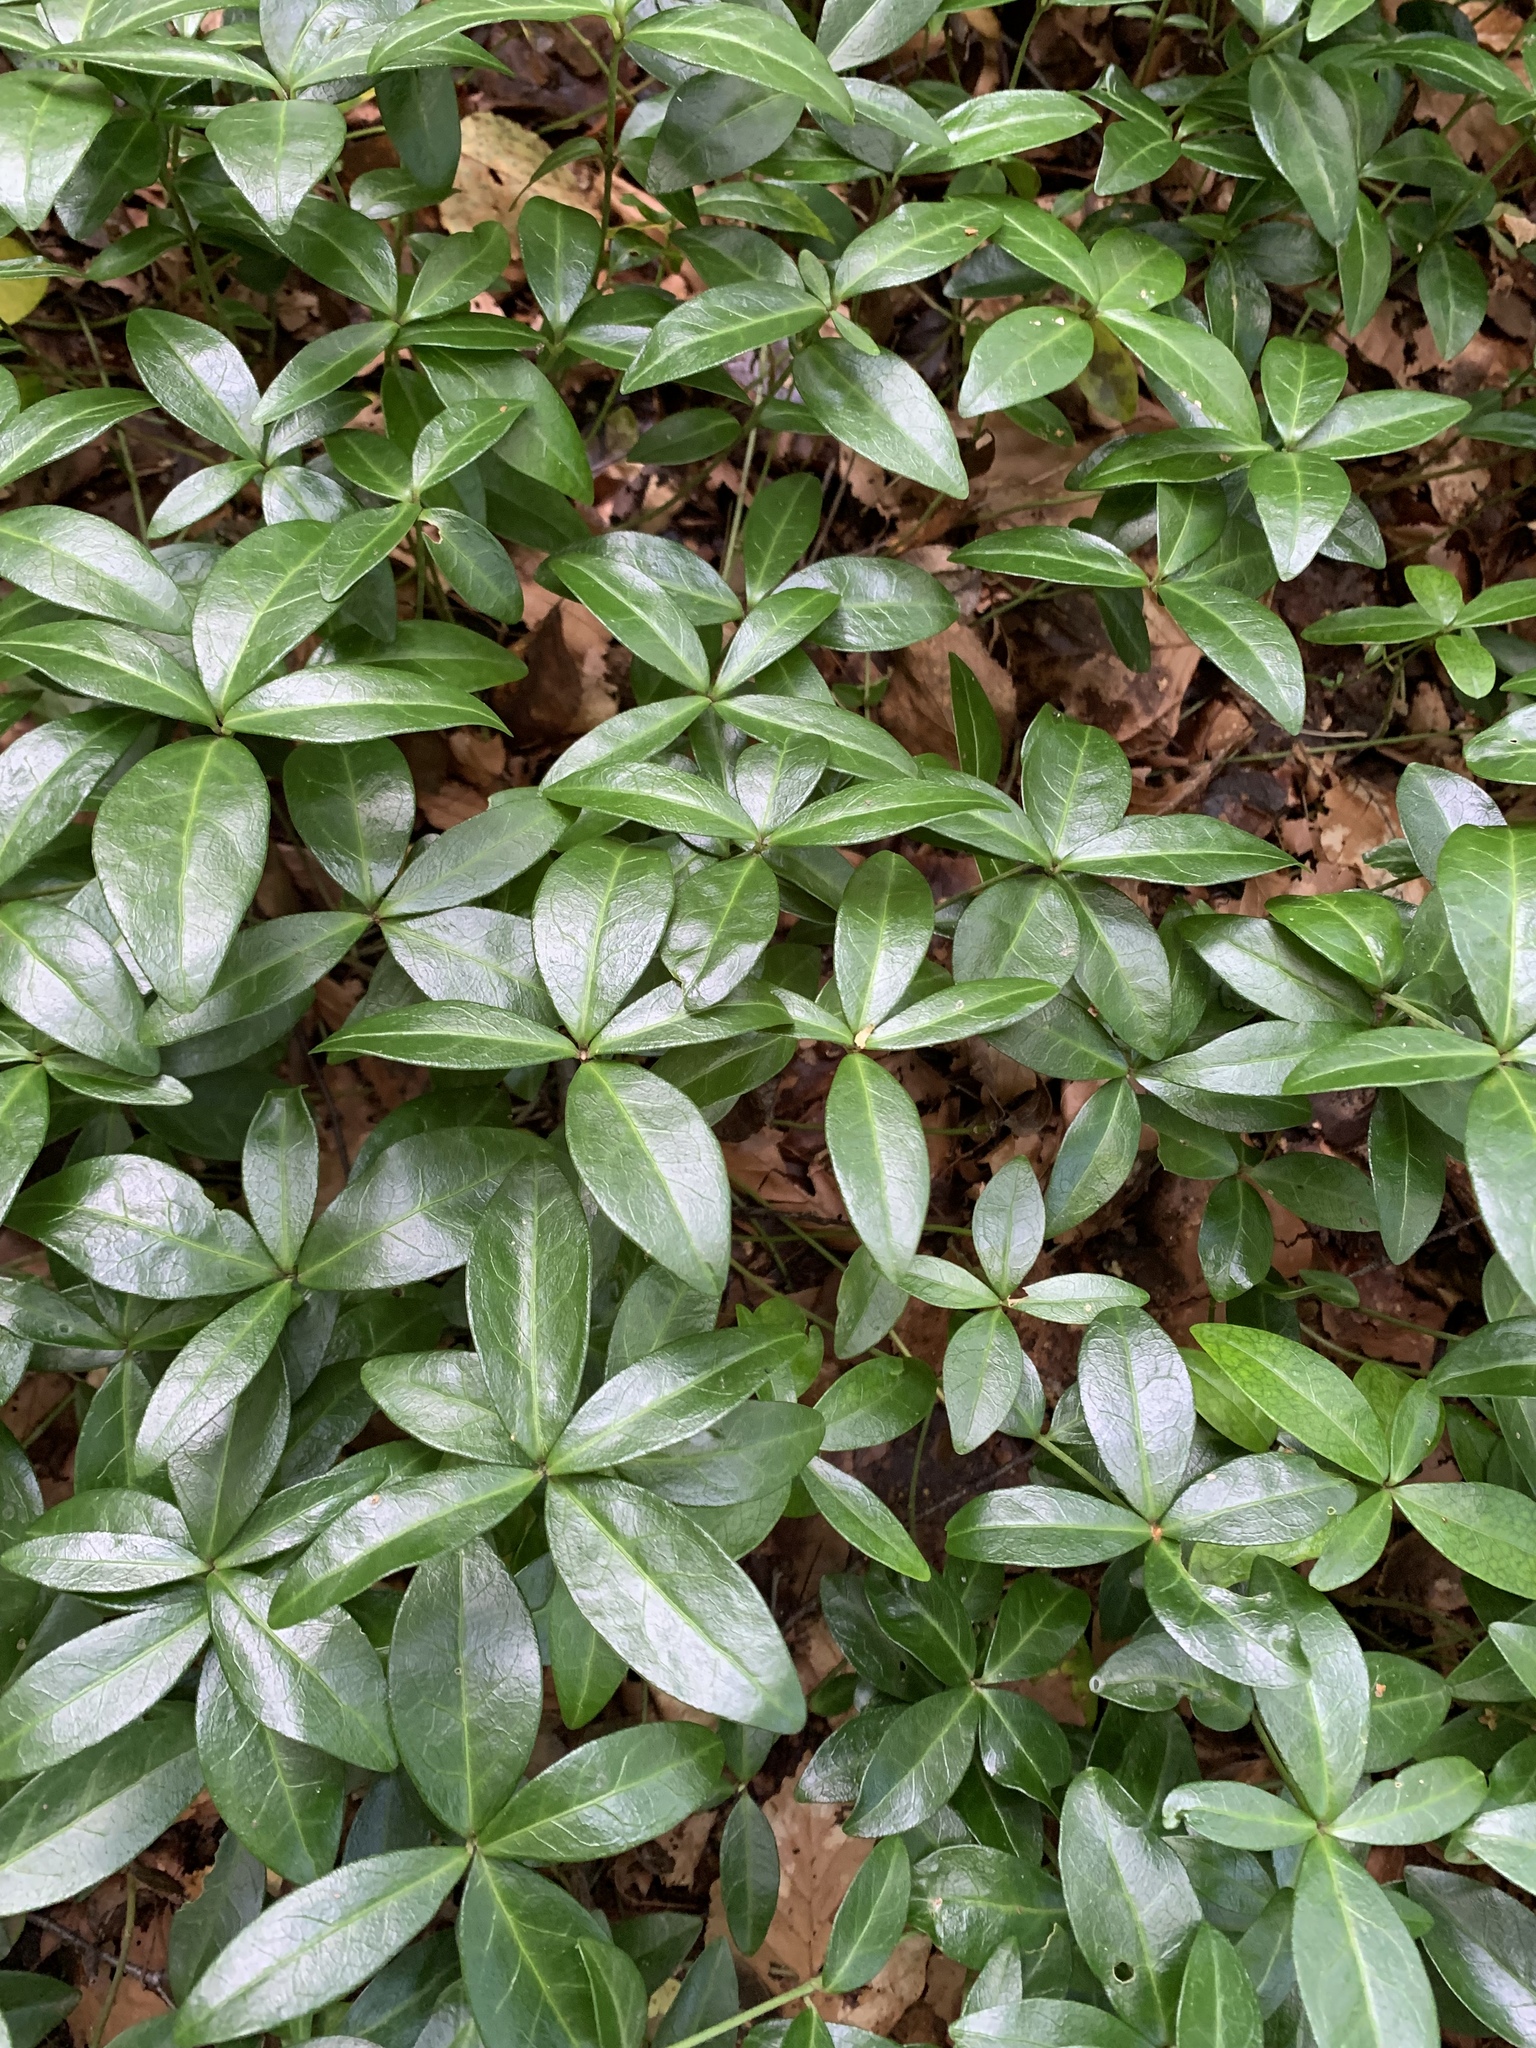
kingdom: Plantae
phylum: Tracheophyta
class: Magnoliopsida
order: Gentianales
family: Apocynaceae
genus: Vinca
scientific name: Vinca minor
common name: Lesser periwinkle
